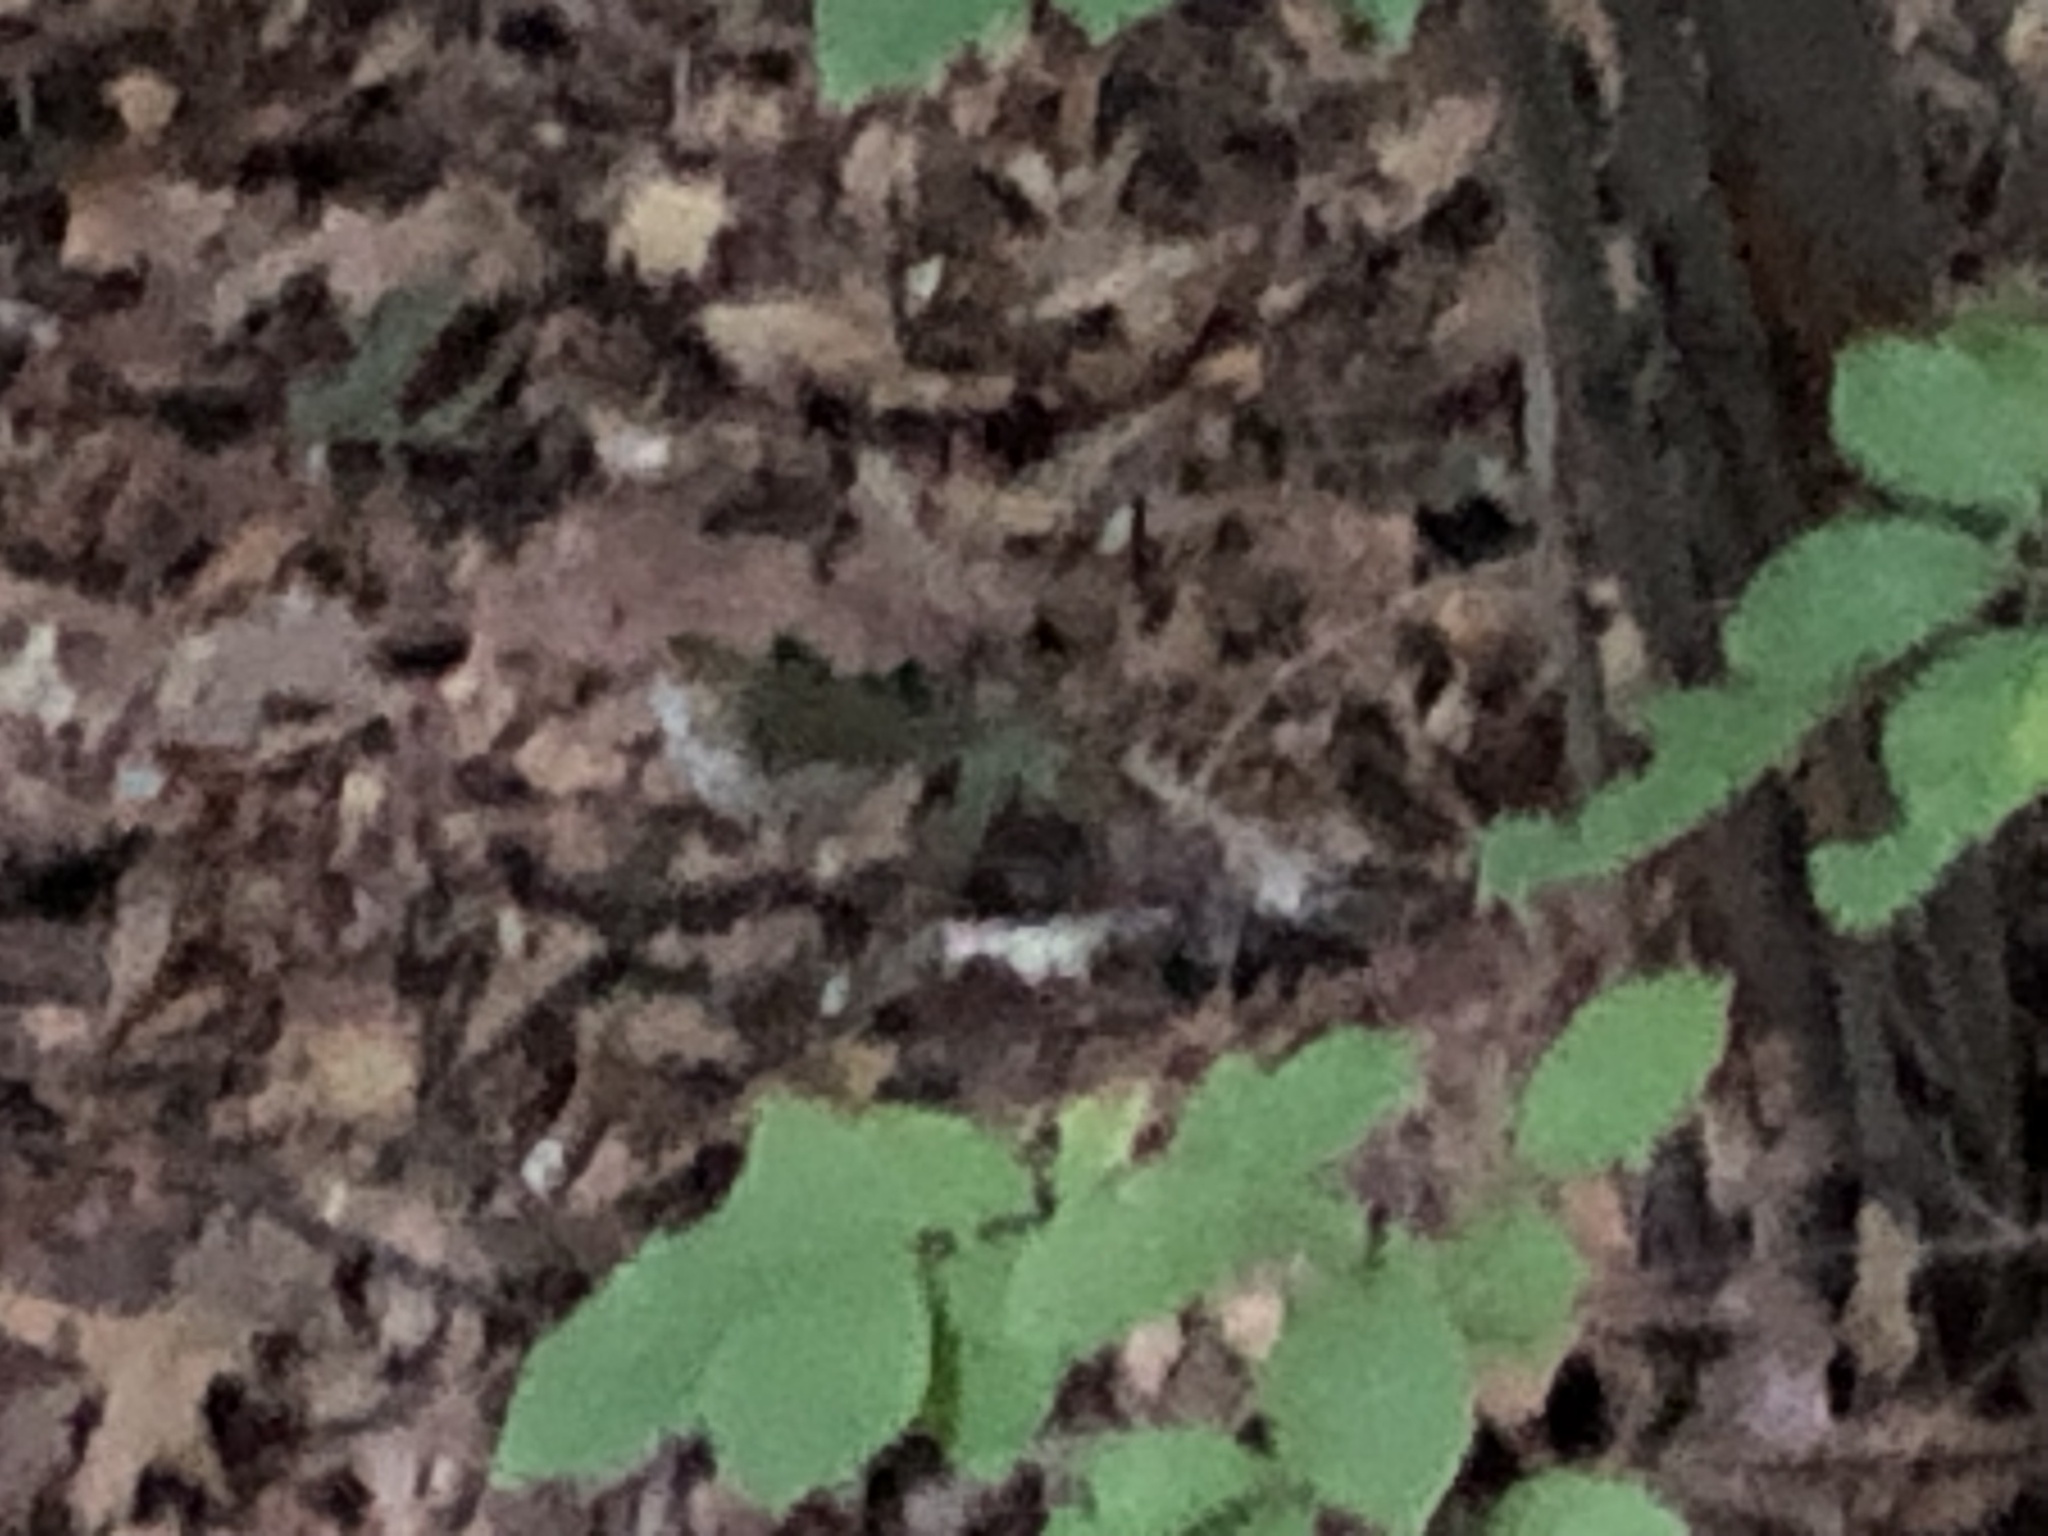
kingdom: Animalia
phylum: Chordata
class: Aves
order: Passeriformes
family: Parulidae
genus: Seiurus
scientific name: Seiurus aurocapilla
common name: Ovenbird
